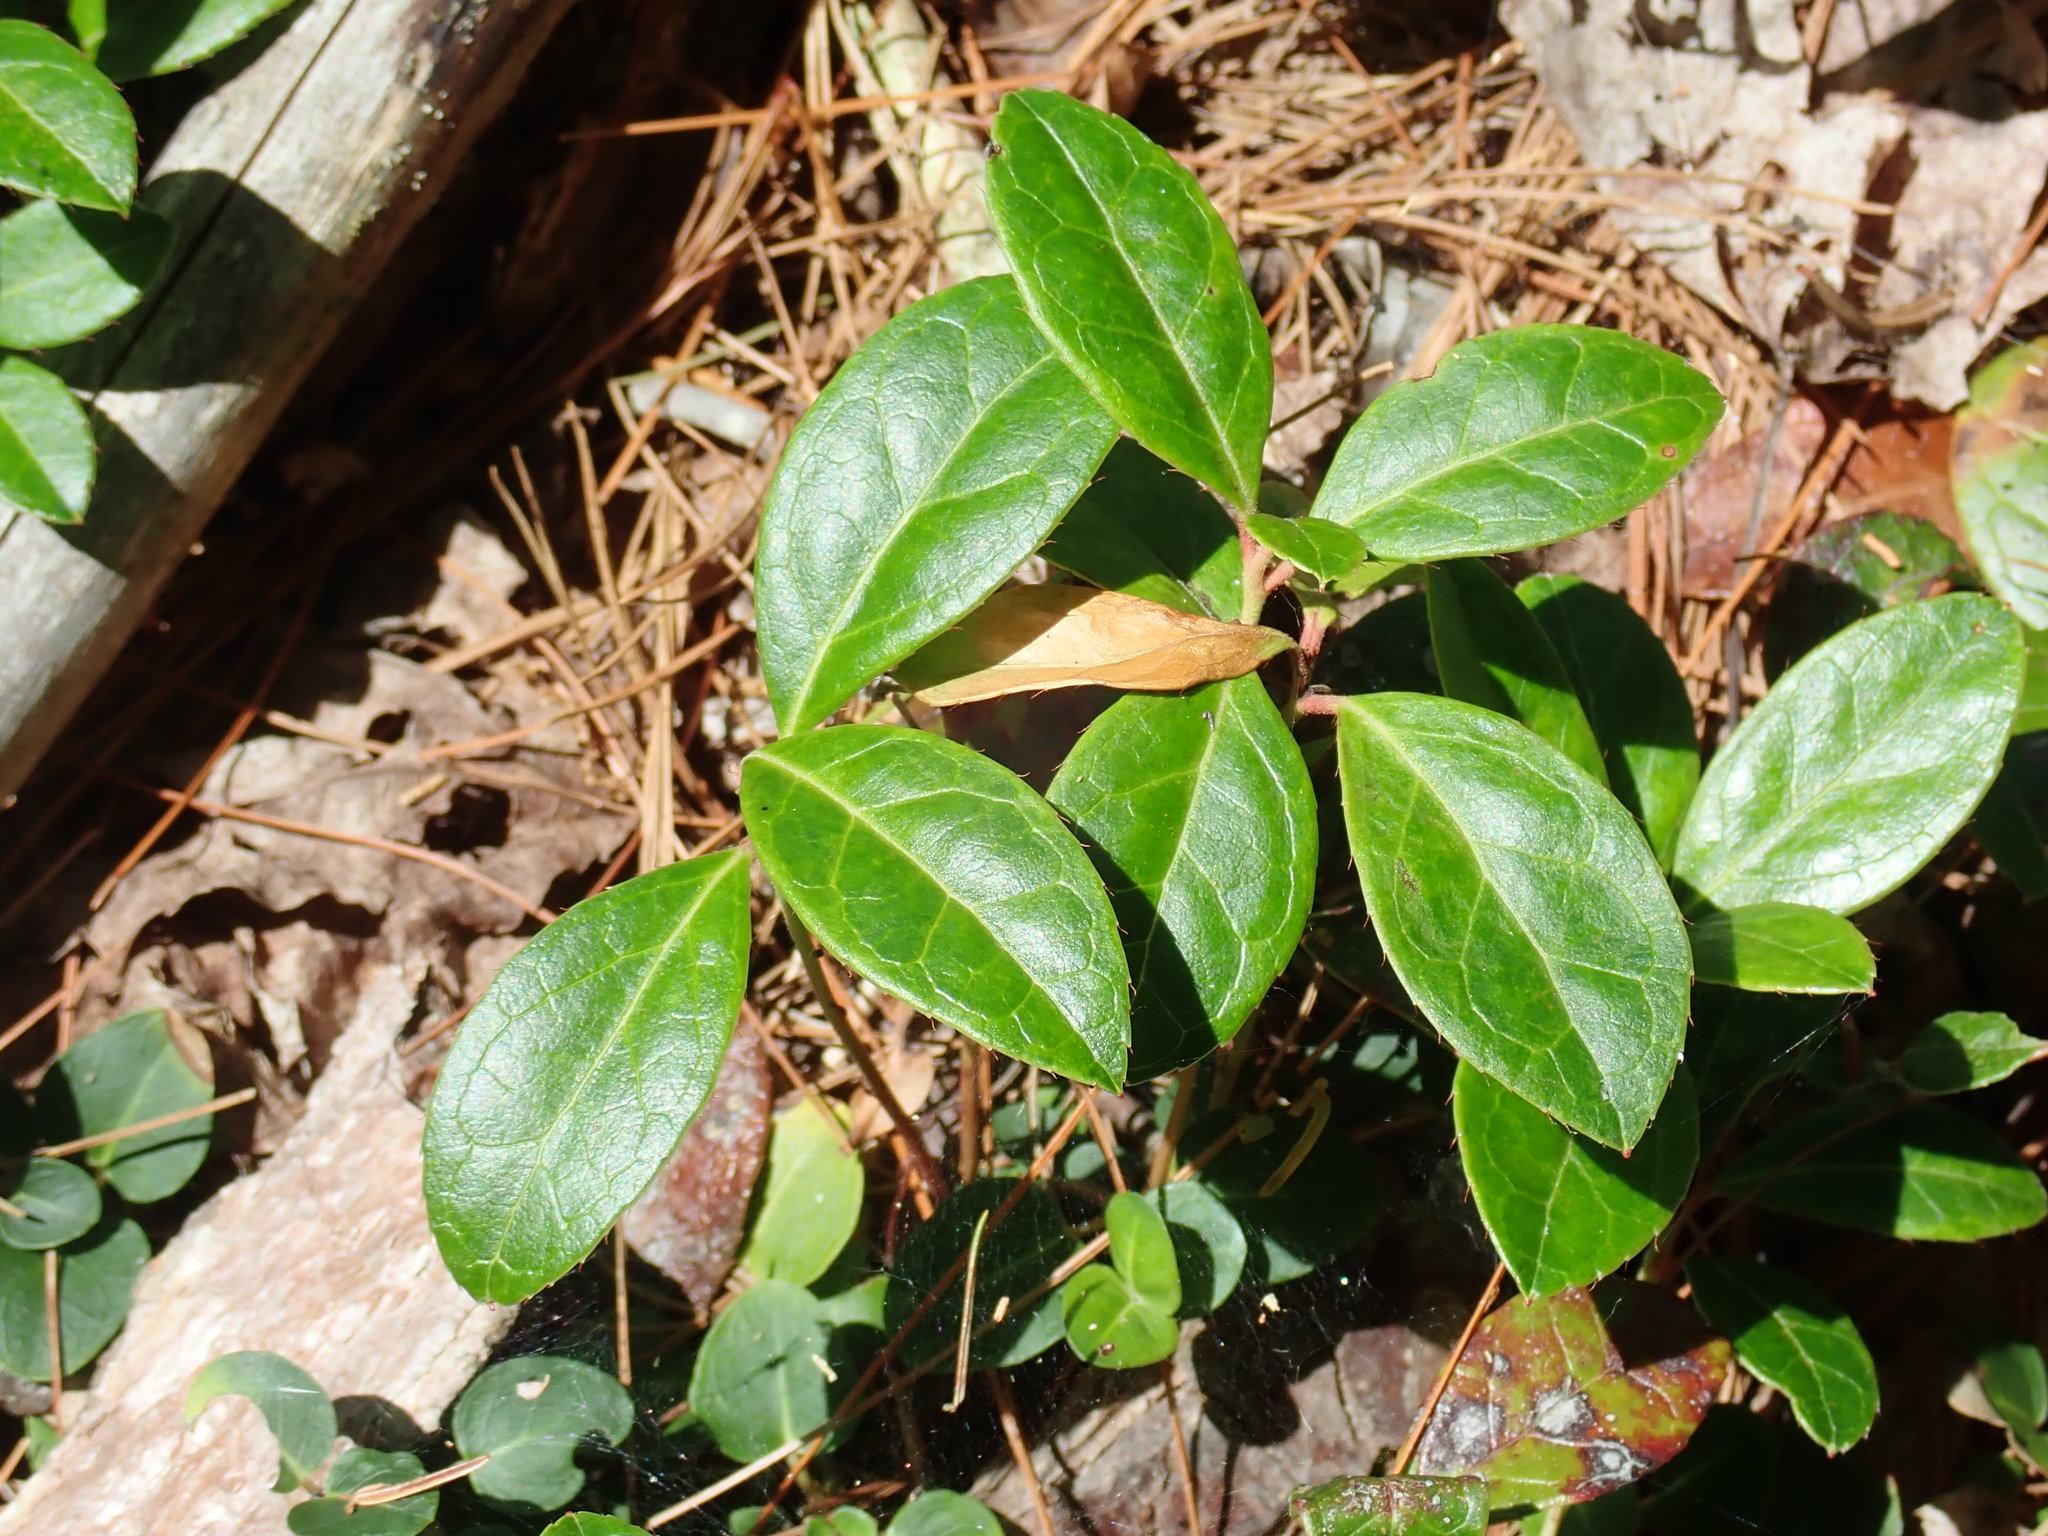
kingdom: Plantae
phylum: Tracheophyta
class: Magnoliopsida
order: Ericales
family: Ericaceae
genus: Gaultheria
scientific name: Gaultheria procumbens
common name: Checkerberry
